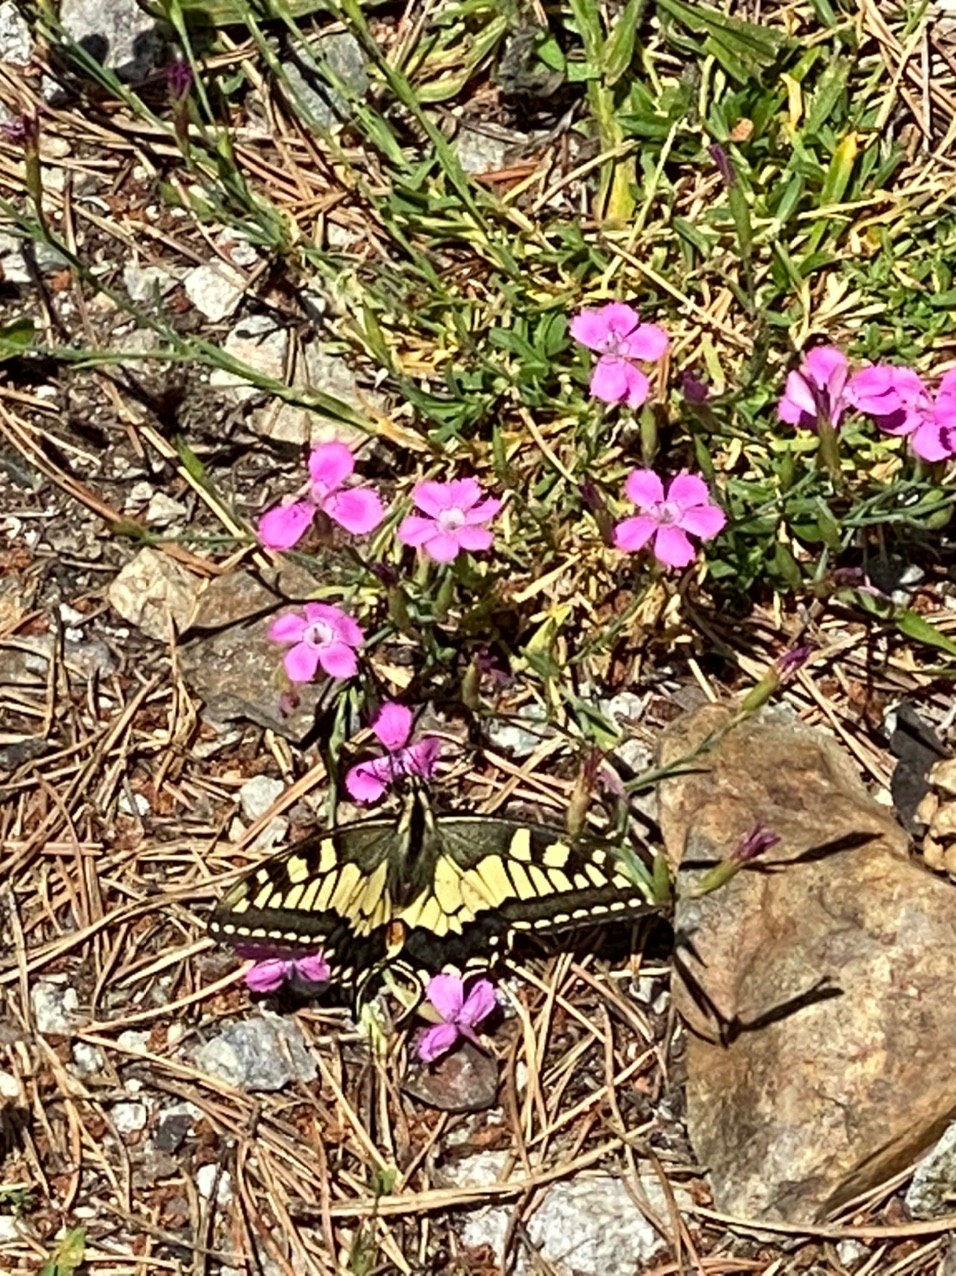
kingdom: Animalia
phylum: Arthropoda
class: Insecta
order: Lepidoptera
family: Papilionidae
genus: Papilio
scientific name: Papilio machaon
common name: Swallowtail
